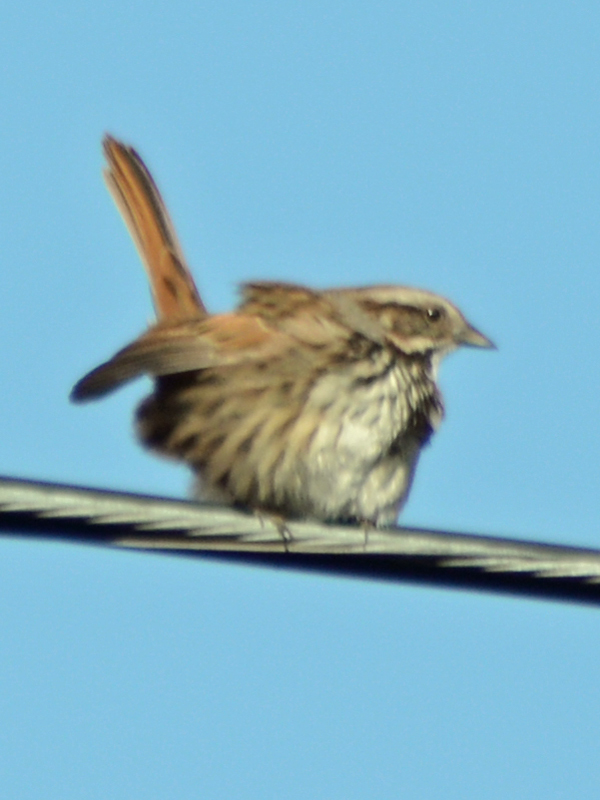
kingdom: Animalia
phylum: Chordata
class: Aves
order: Passeriformes
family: Passerellidae
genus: Melospiza
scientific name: Melospiza melodia
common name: Song sparrow
